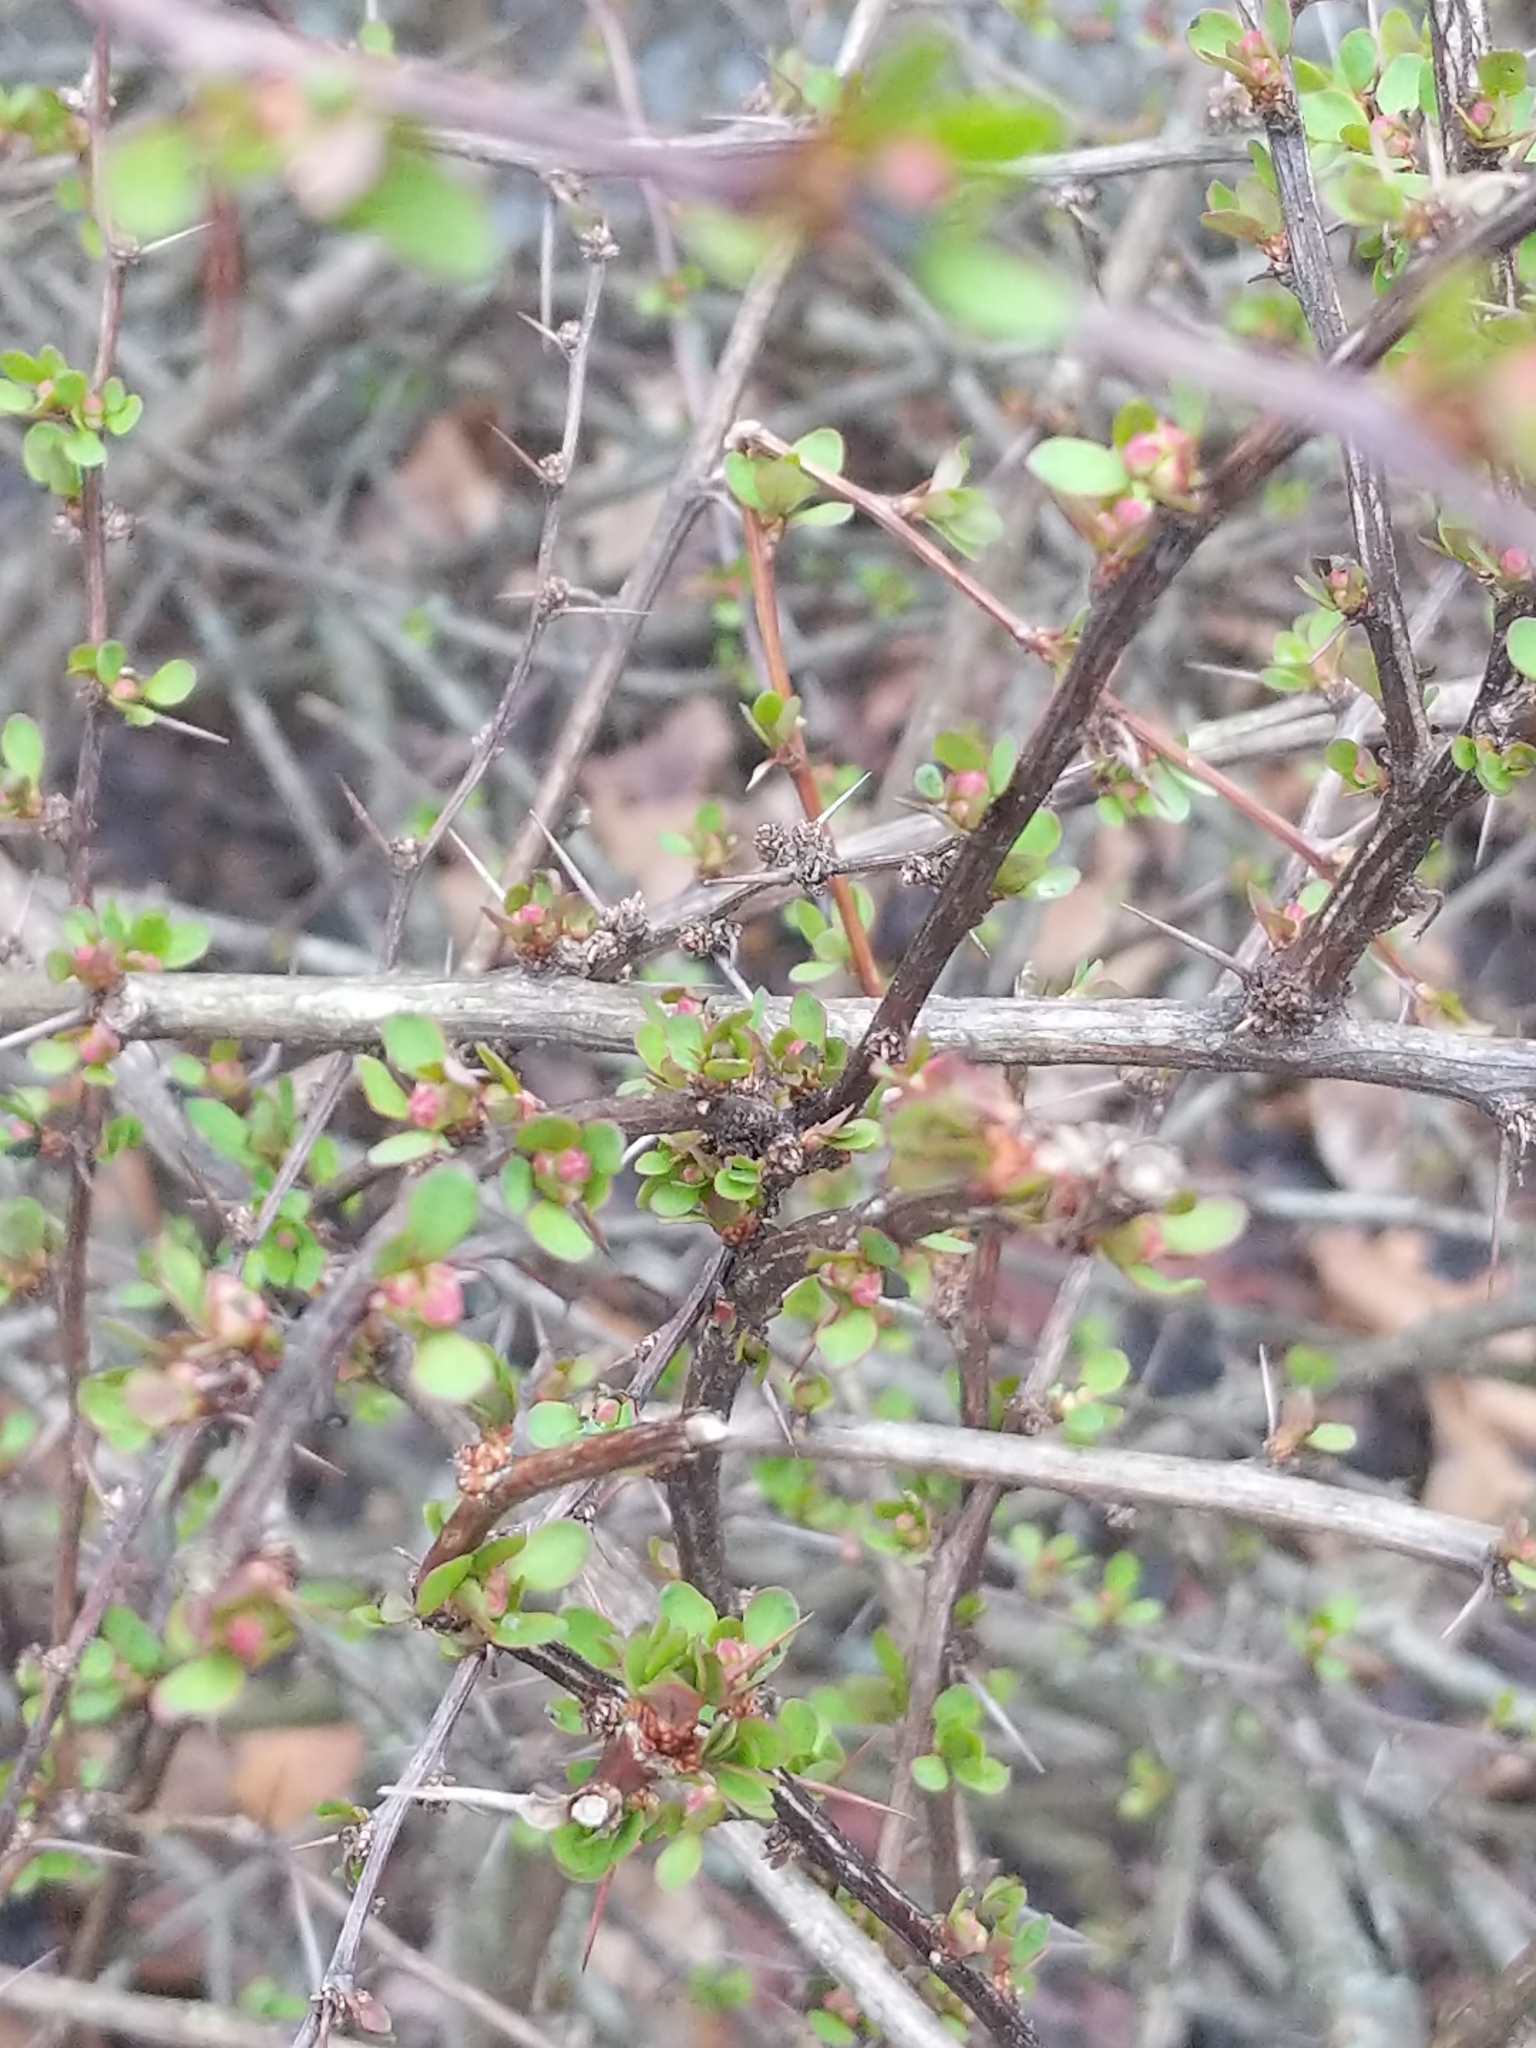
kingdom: Plantae
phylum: Tracheophyta
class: Magnoliopsida
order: Ranunculales
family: Berberidaceae
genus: Berberis
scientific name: Berberis thunbergii
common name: Japanese barberry
